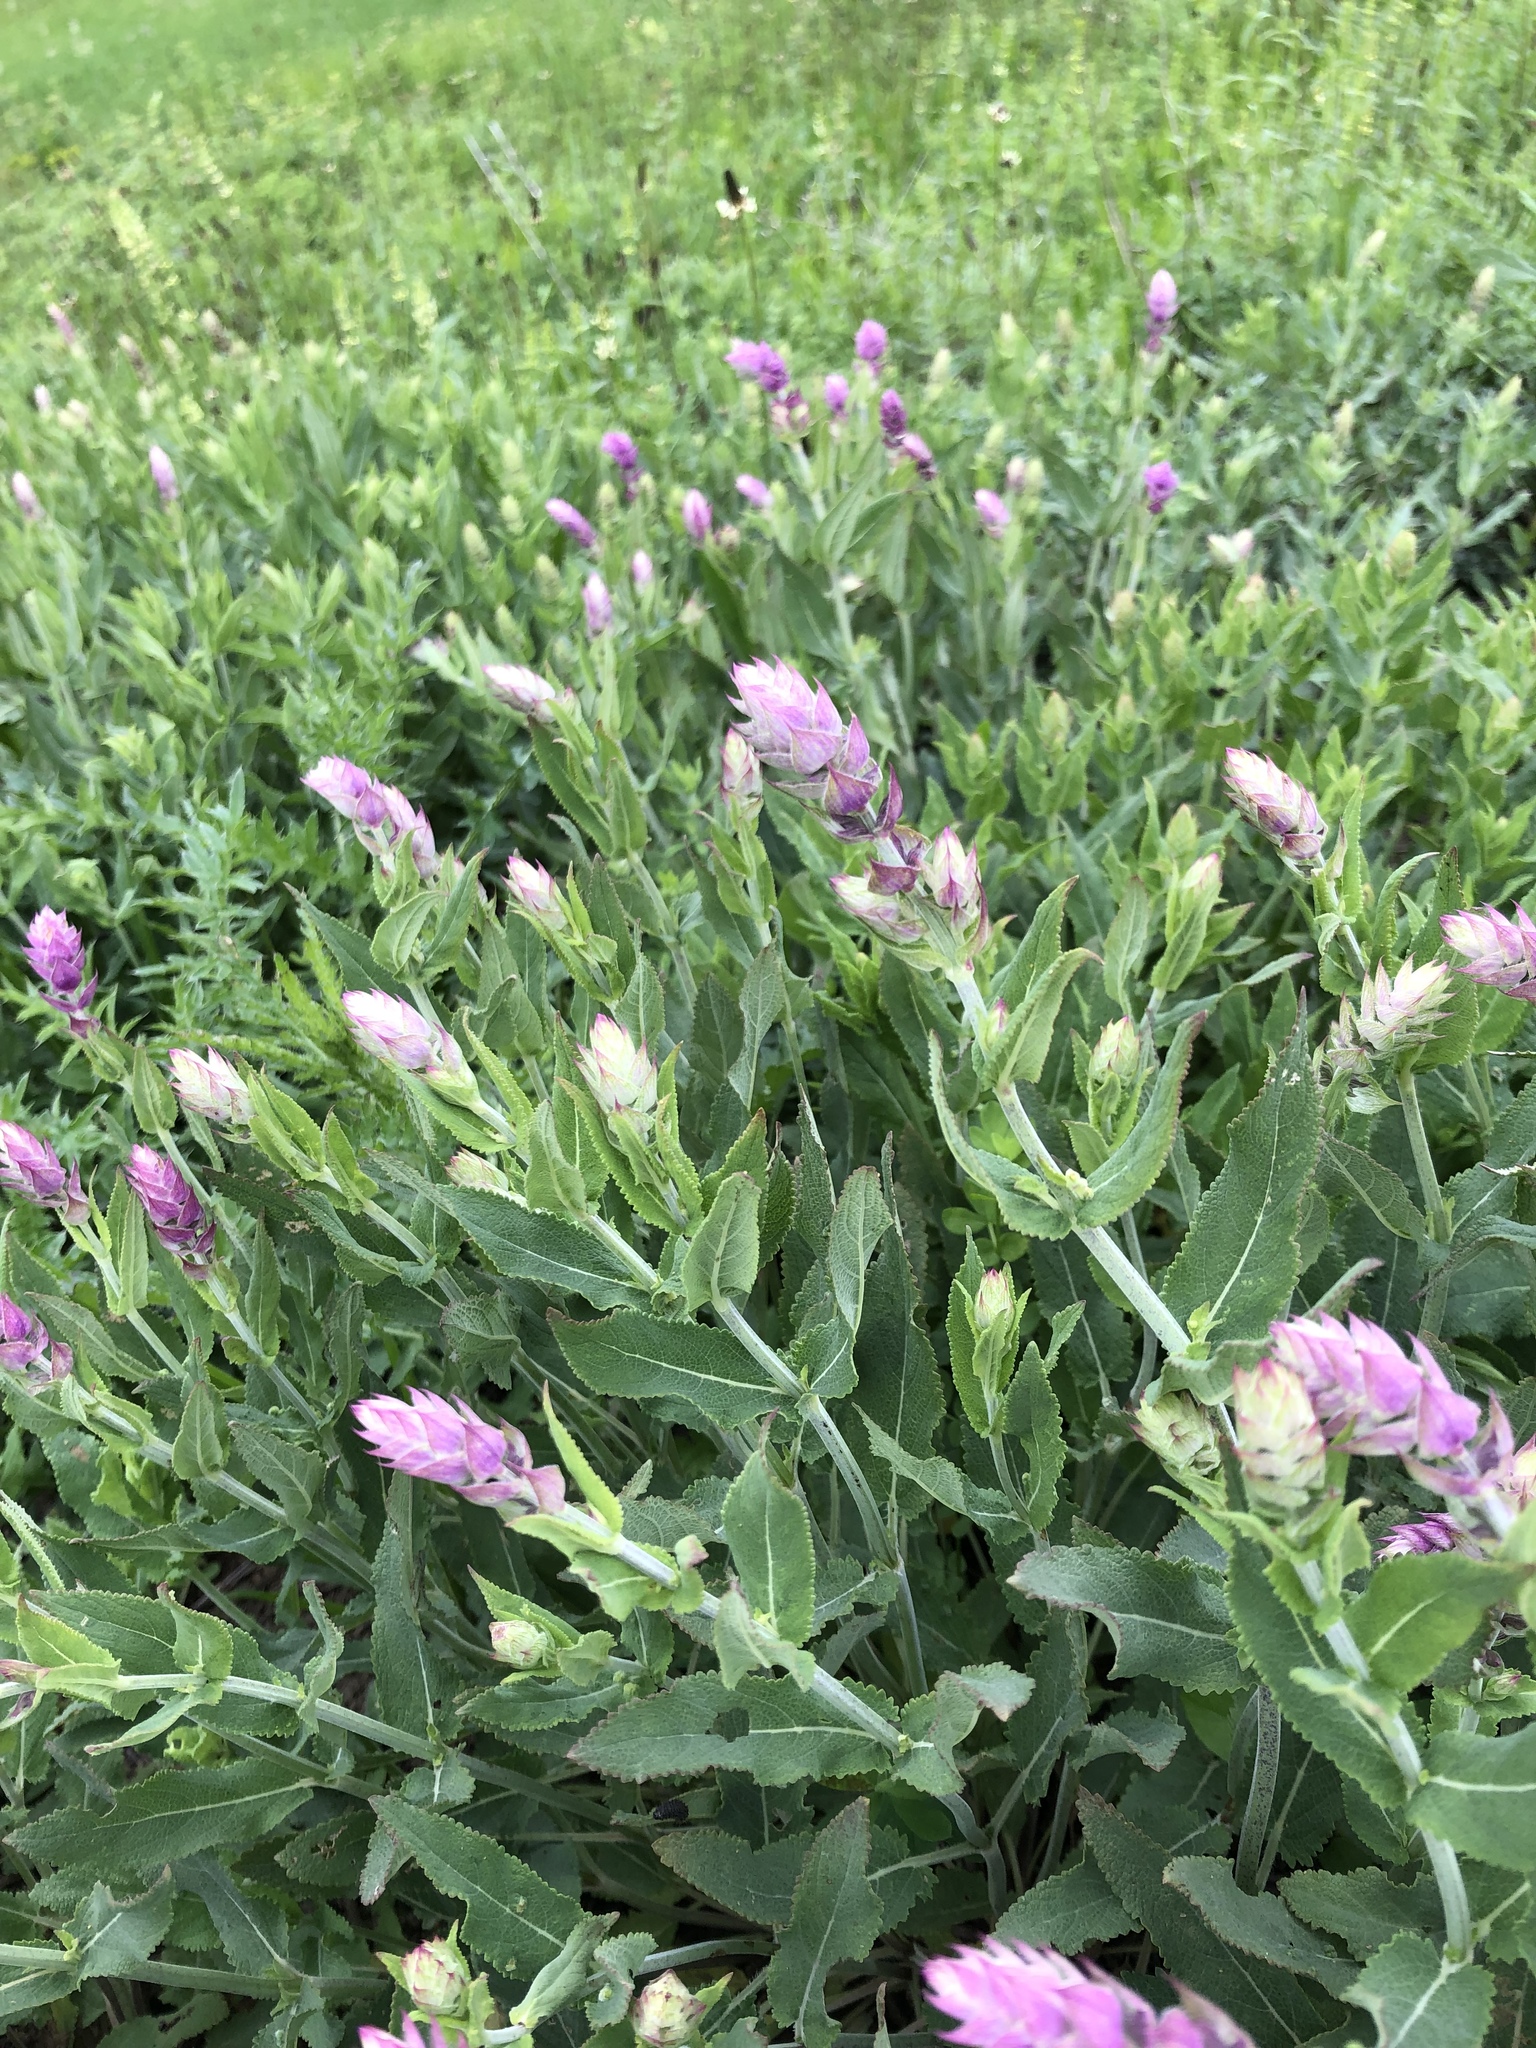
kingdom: Plantae
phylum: Tracheophyta
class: Magnoliopsida
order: Lamiales
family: Lamiaceae
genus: Salvia
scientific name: Salvia nemorosa
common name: Balkan clary
